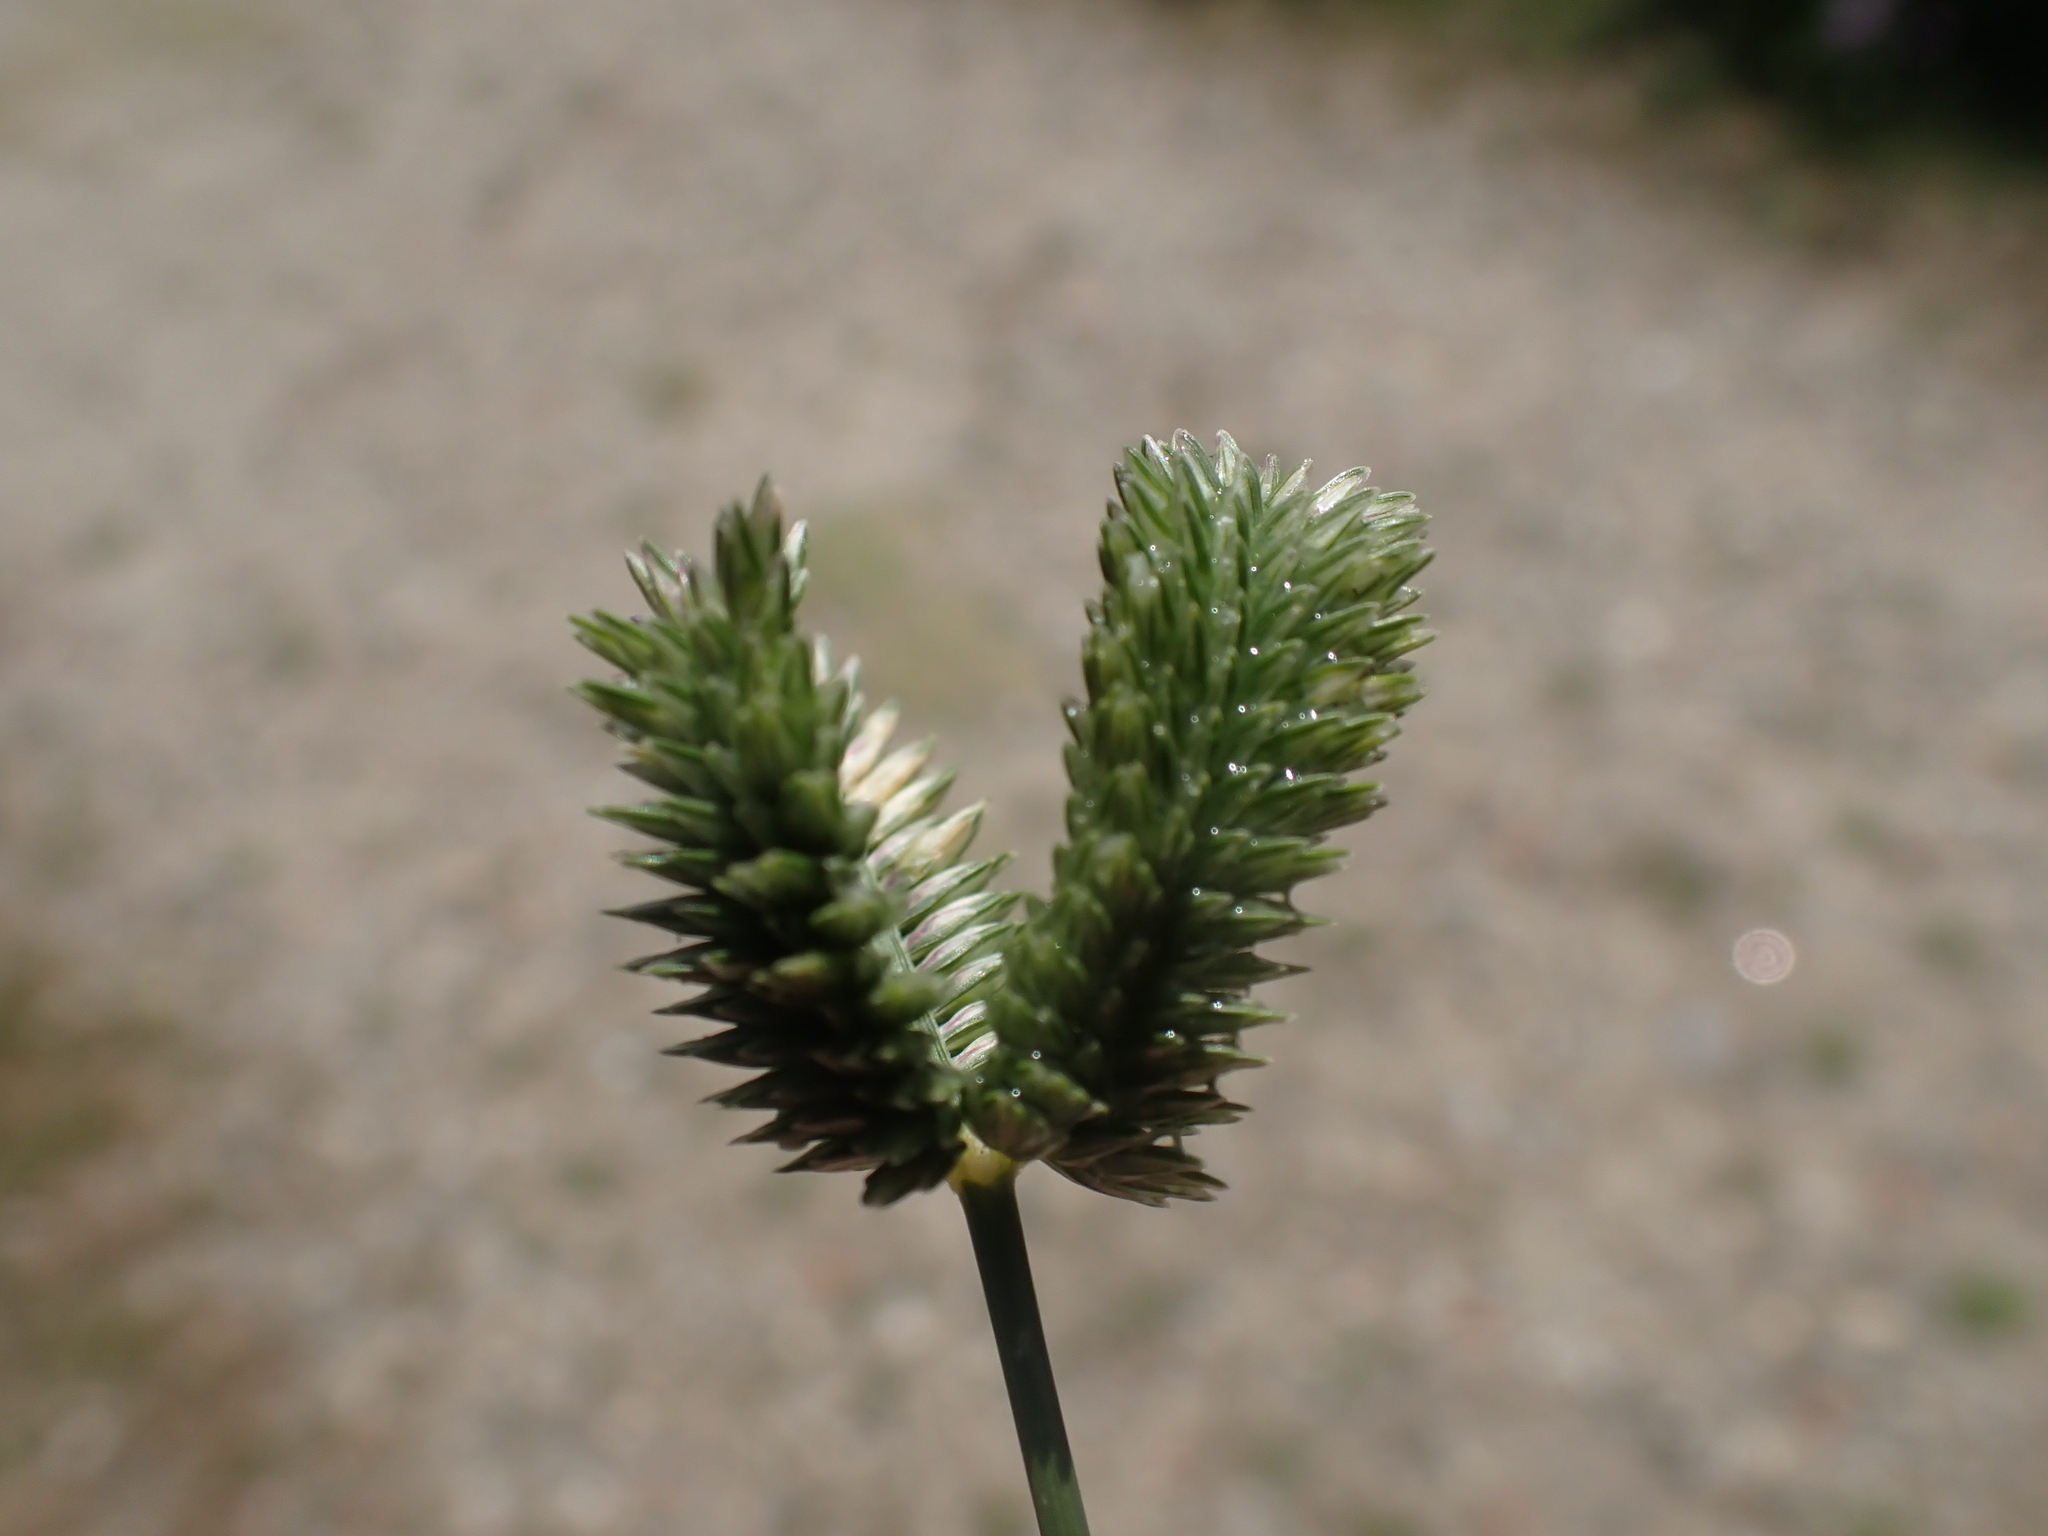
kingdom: Plantae
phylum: Tracheophyta
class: Liliopsida
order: Poales
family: Poaceae
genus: Eleusine
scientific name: Eleusine tristachya
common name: American yard-grass
